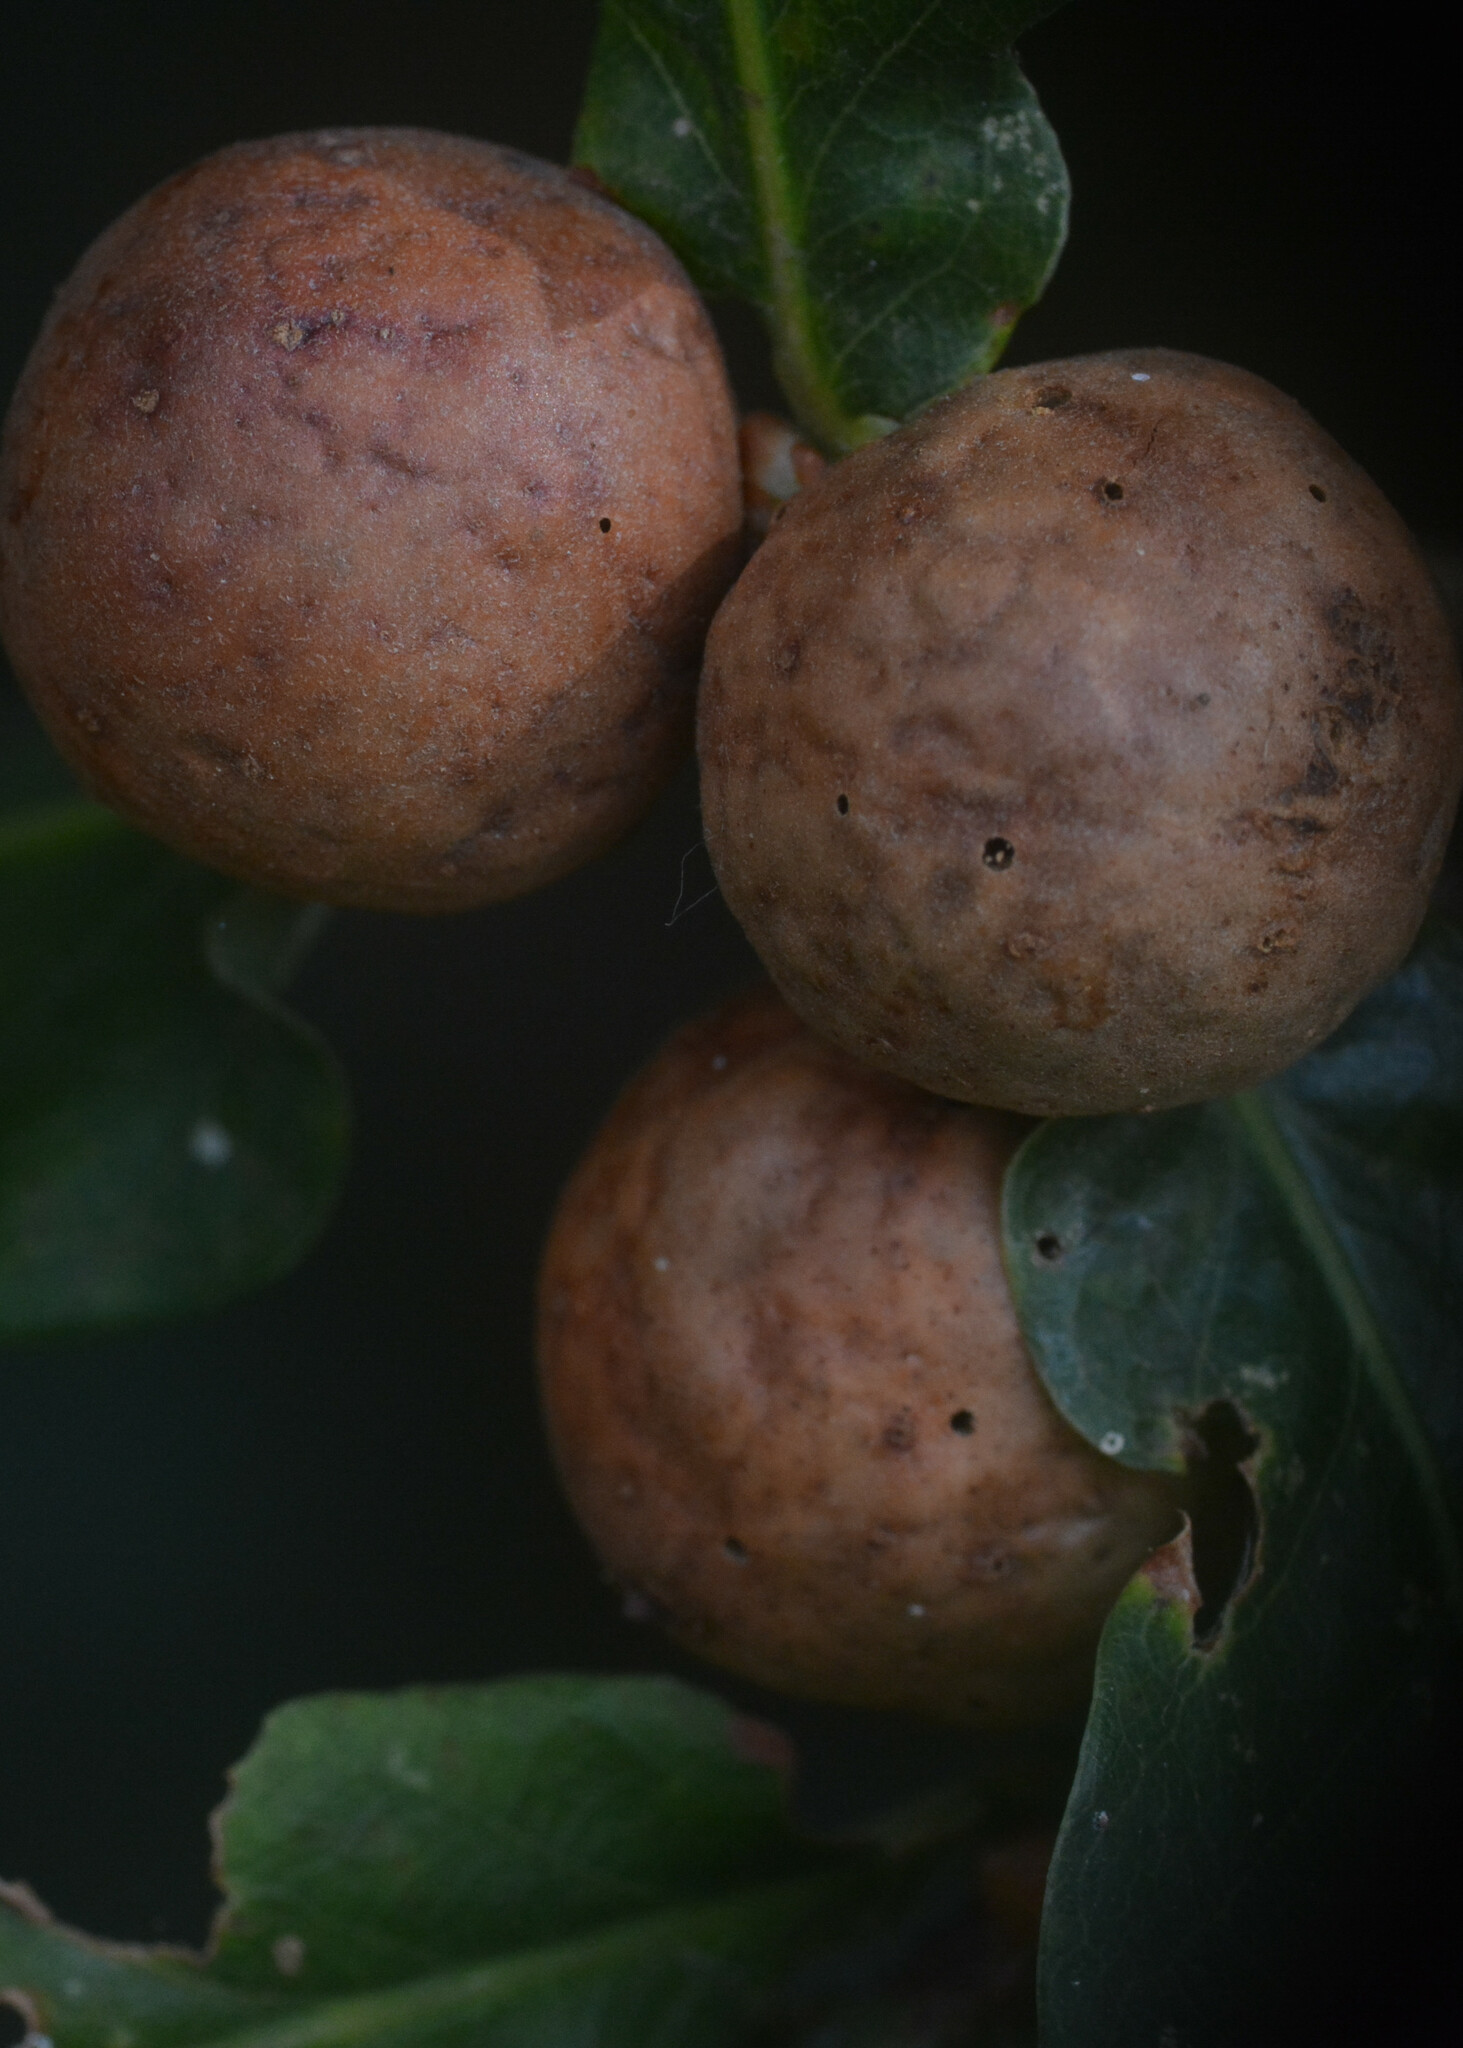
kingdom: Animalia
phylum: Arthropoda
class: Insecta
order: Hymenoptera
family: Cynipidae
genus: Andricus
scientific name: Andricus kollari
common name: Marble gall
